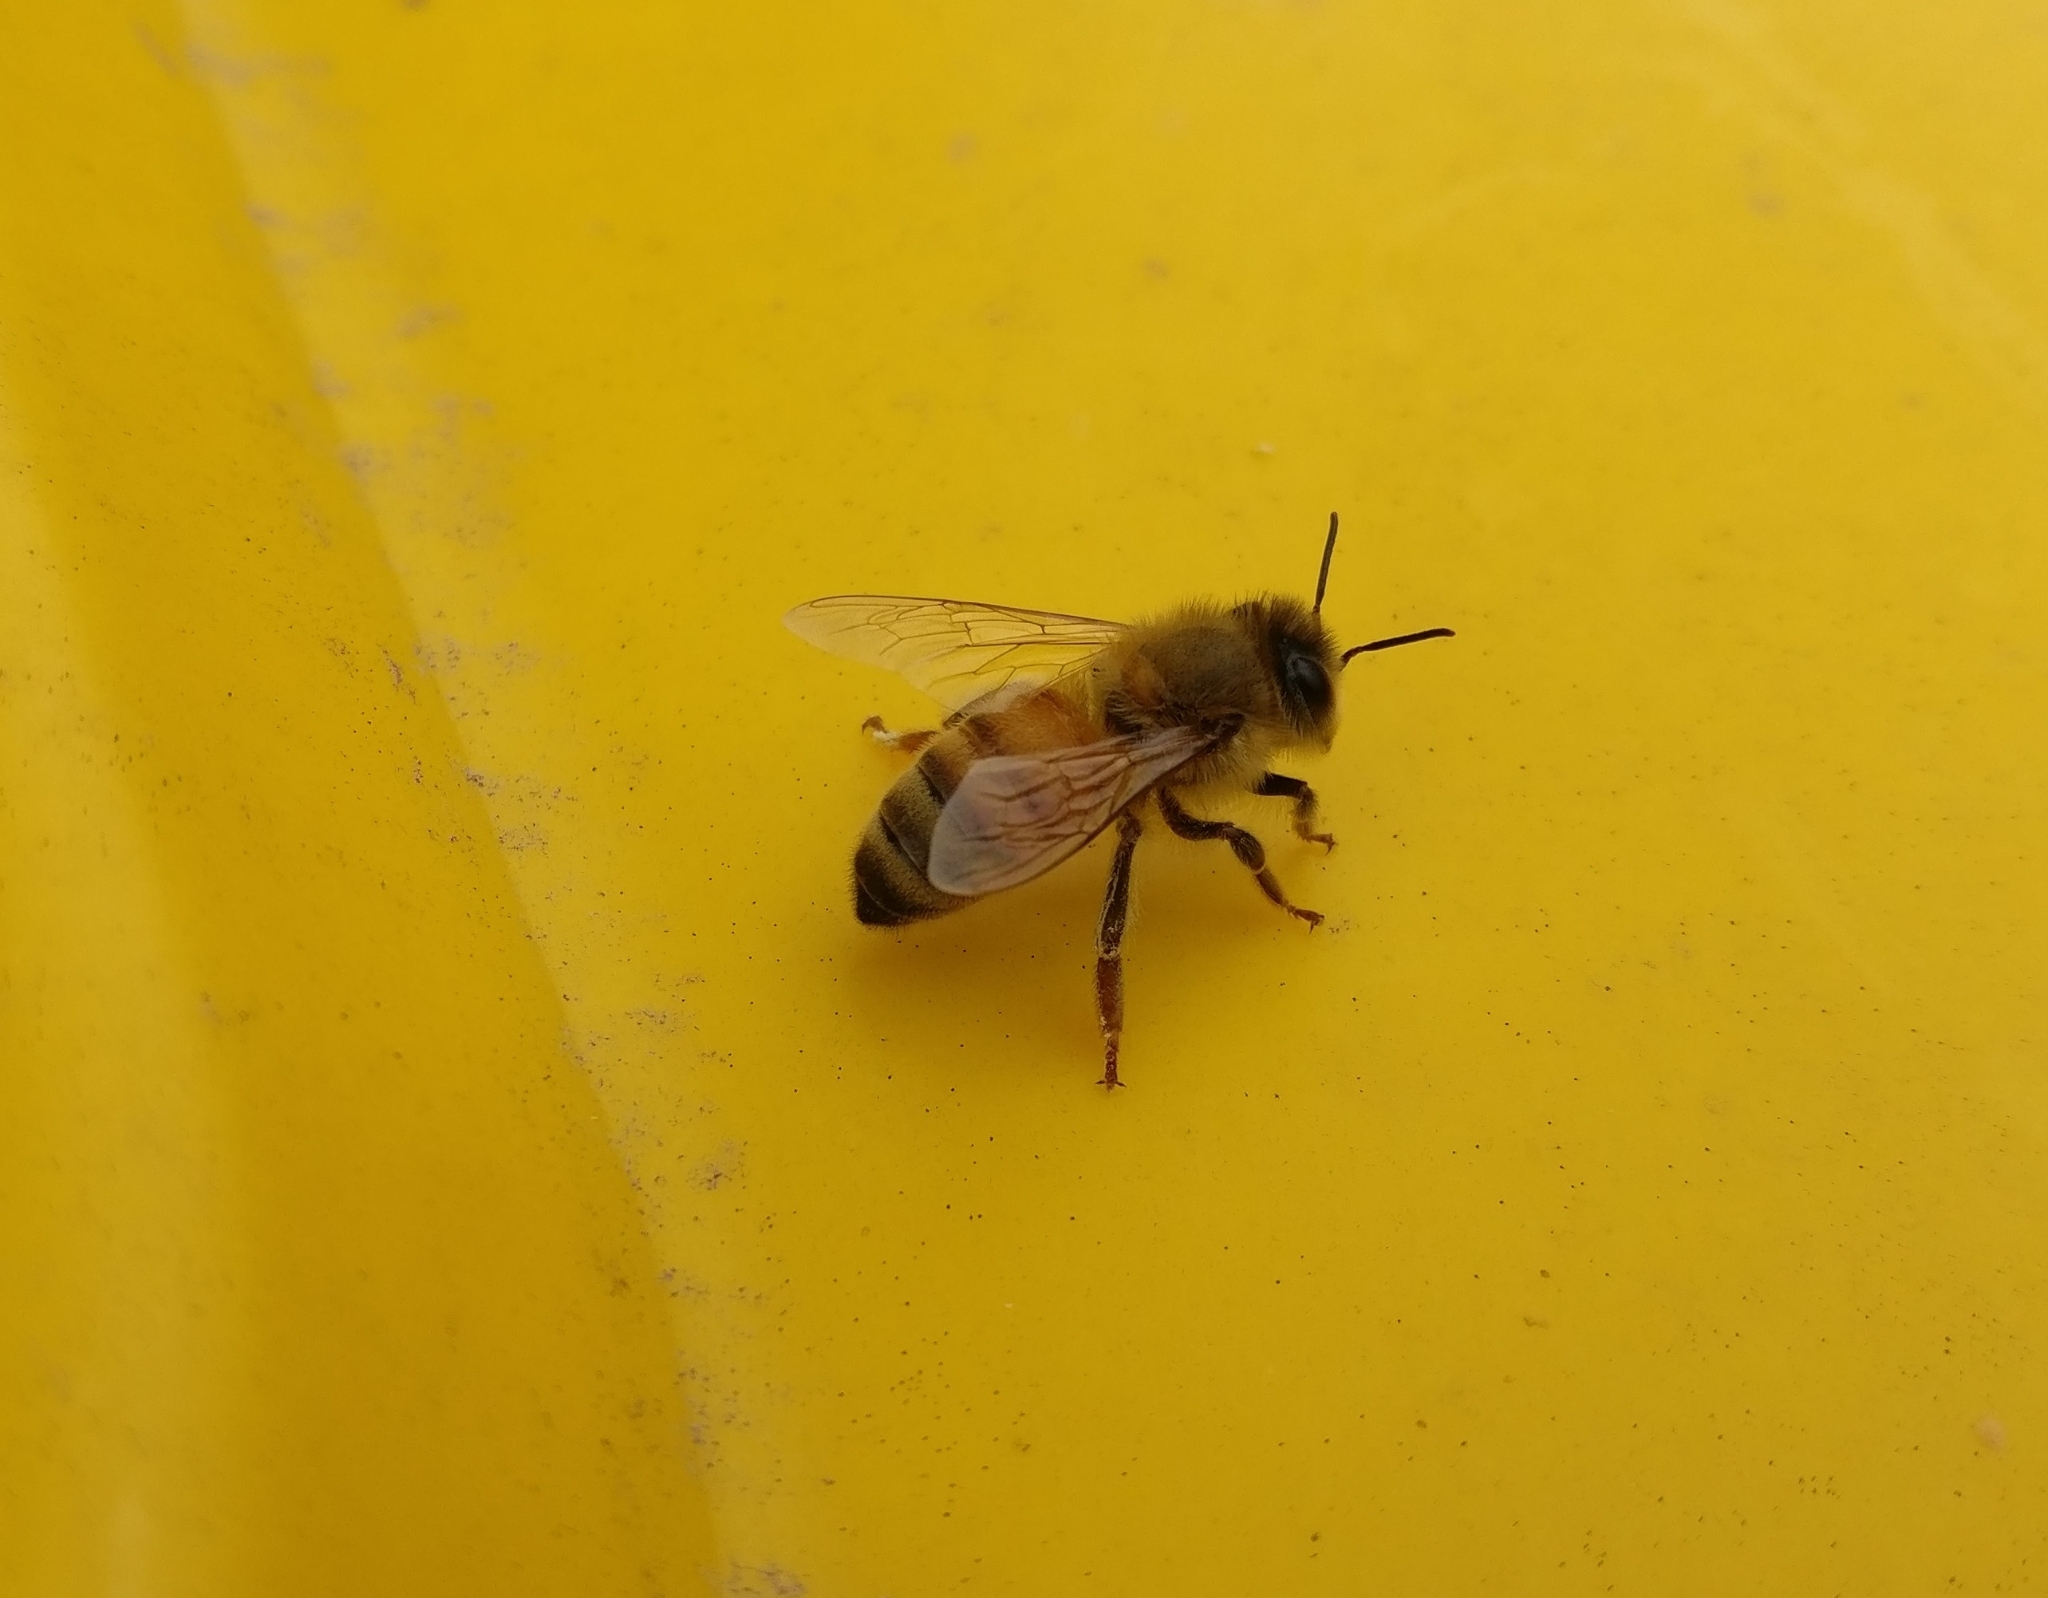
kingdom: Animalia
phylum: Arthropoda
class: Insecta
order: Hymenoptera
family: Apidae
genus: Apis
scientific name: Apis mellifera
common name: Honey bee
